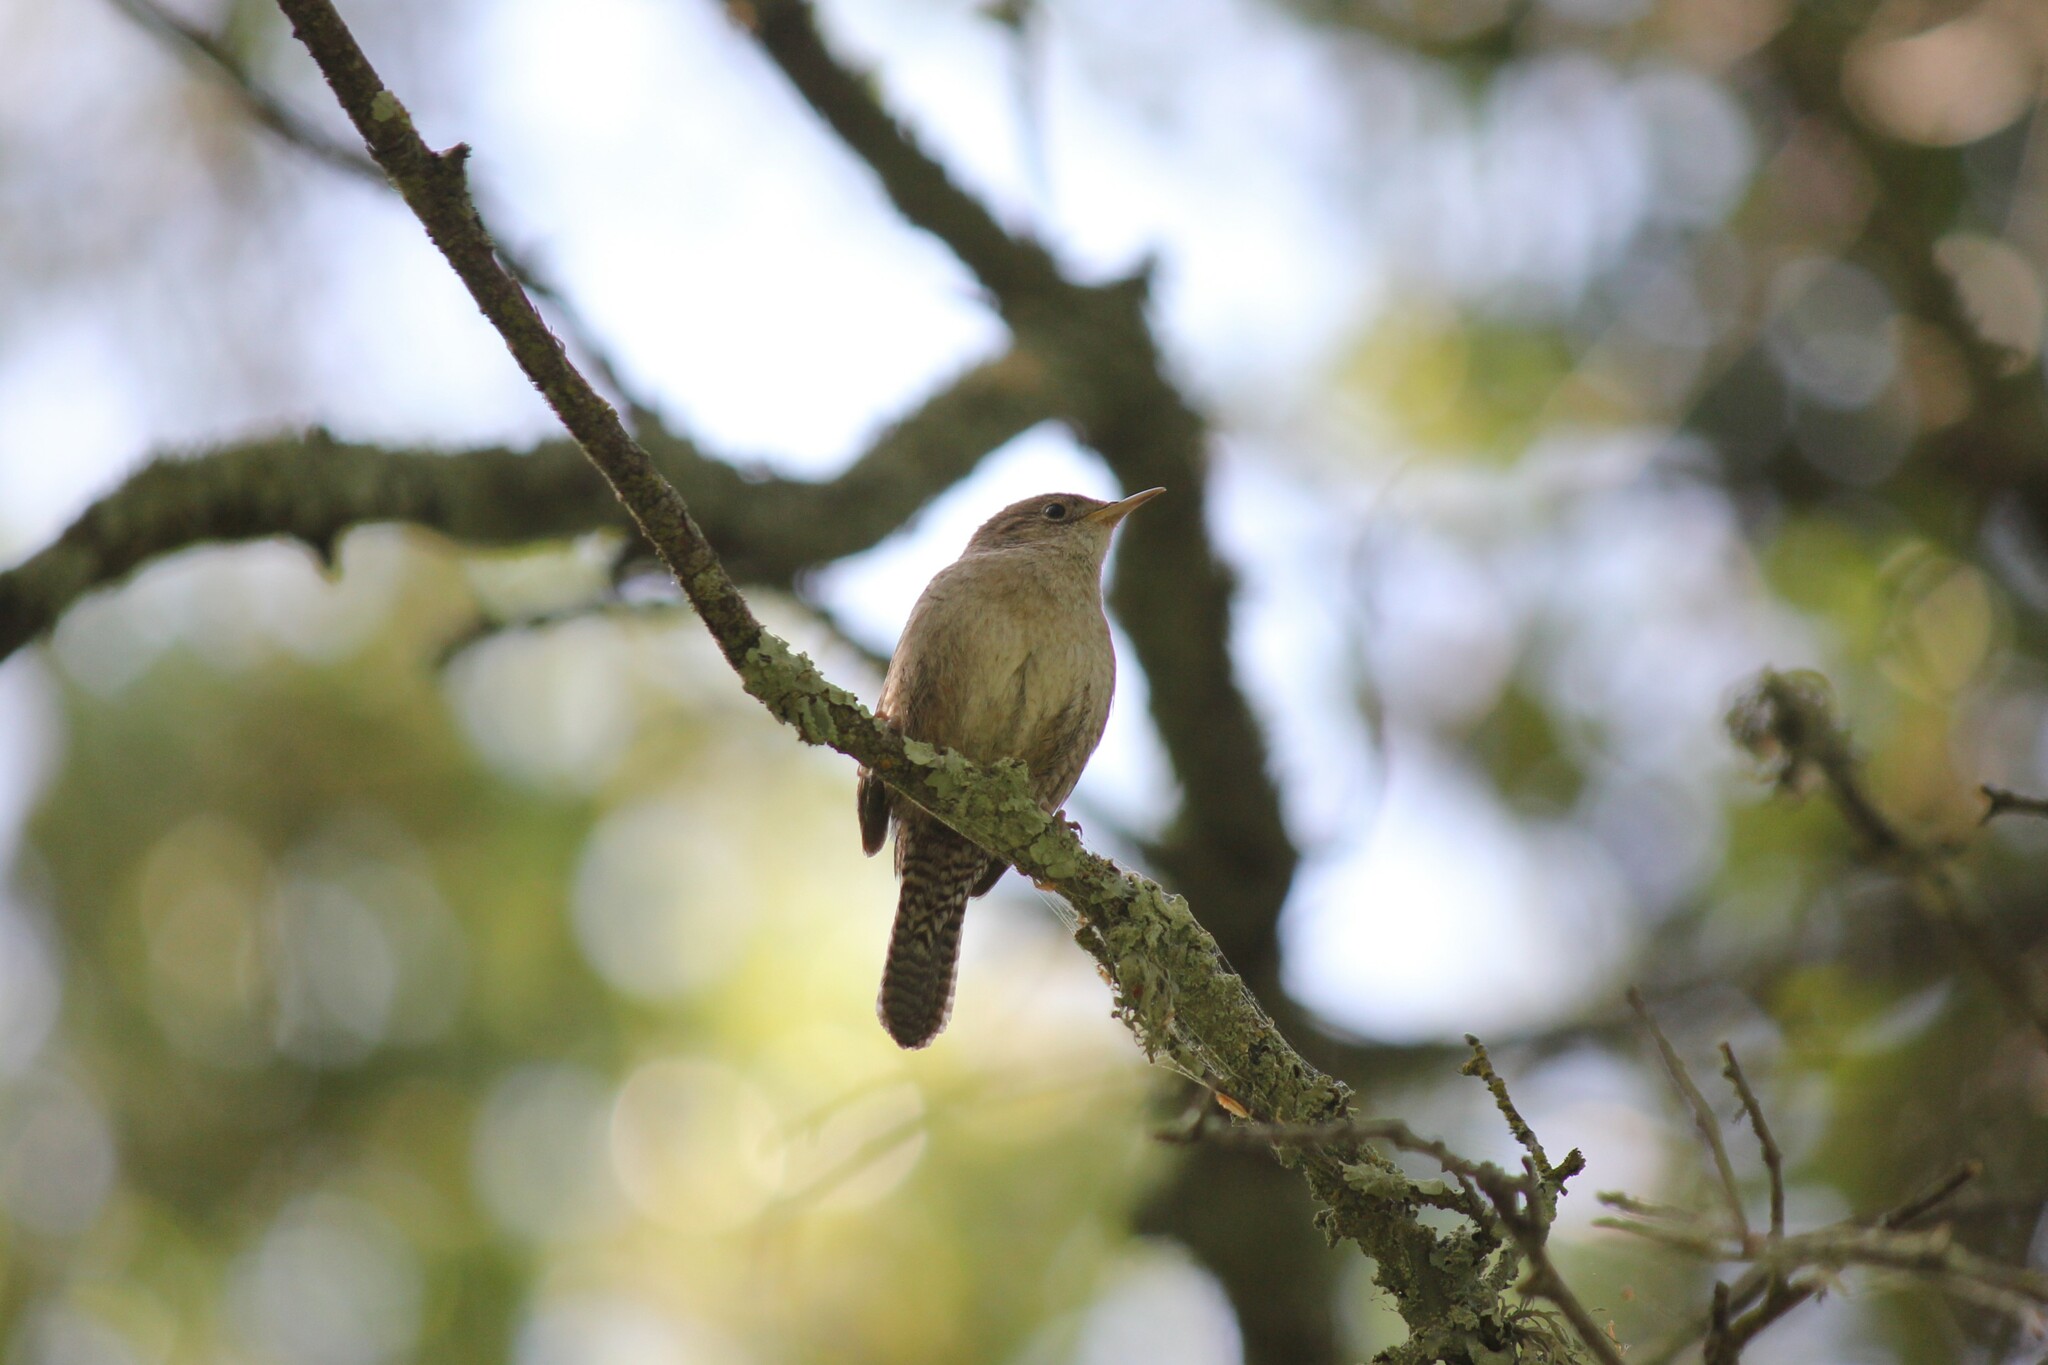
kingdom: Animalia
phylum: Chordata
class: Aves
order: Passeriformes
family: Troglodytidae
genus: Troglodytes
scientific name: Troglodytes aedon
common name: House wren
